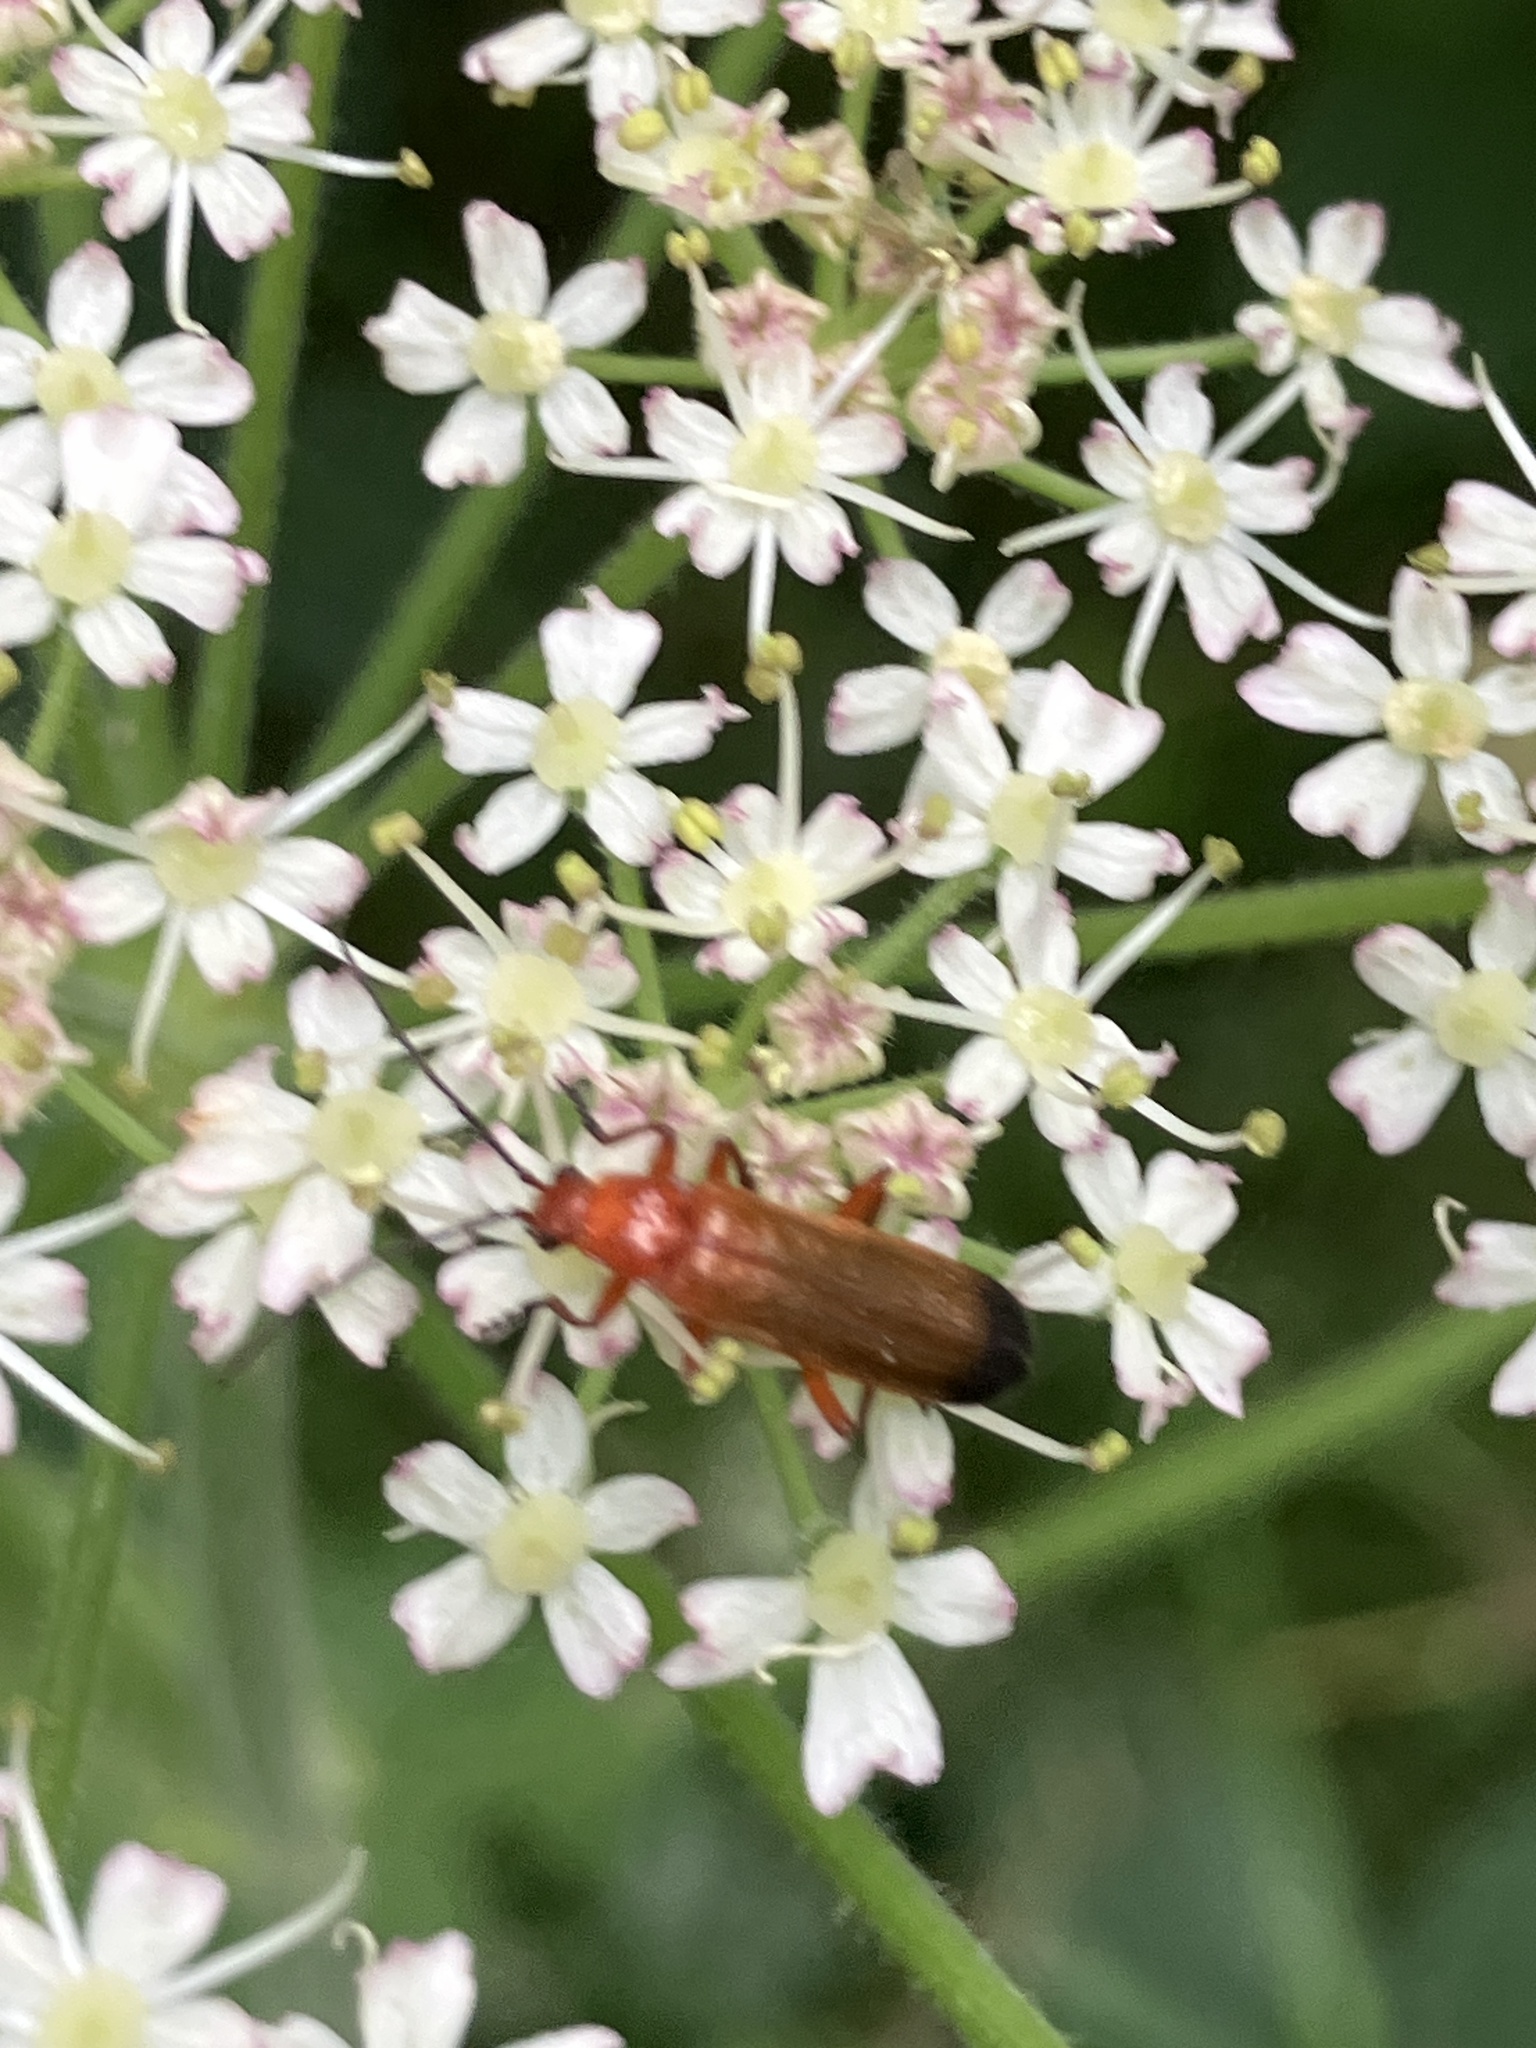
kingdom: Animalia
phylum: Arthropoda
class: Insecta
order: Coleoptera
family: Cantharidae
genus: Rhagonycha
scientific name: Rhagonycha fulva
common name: Common red soldier beetle
